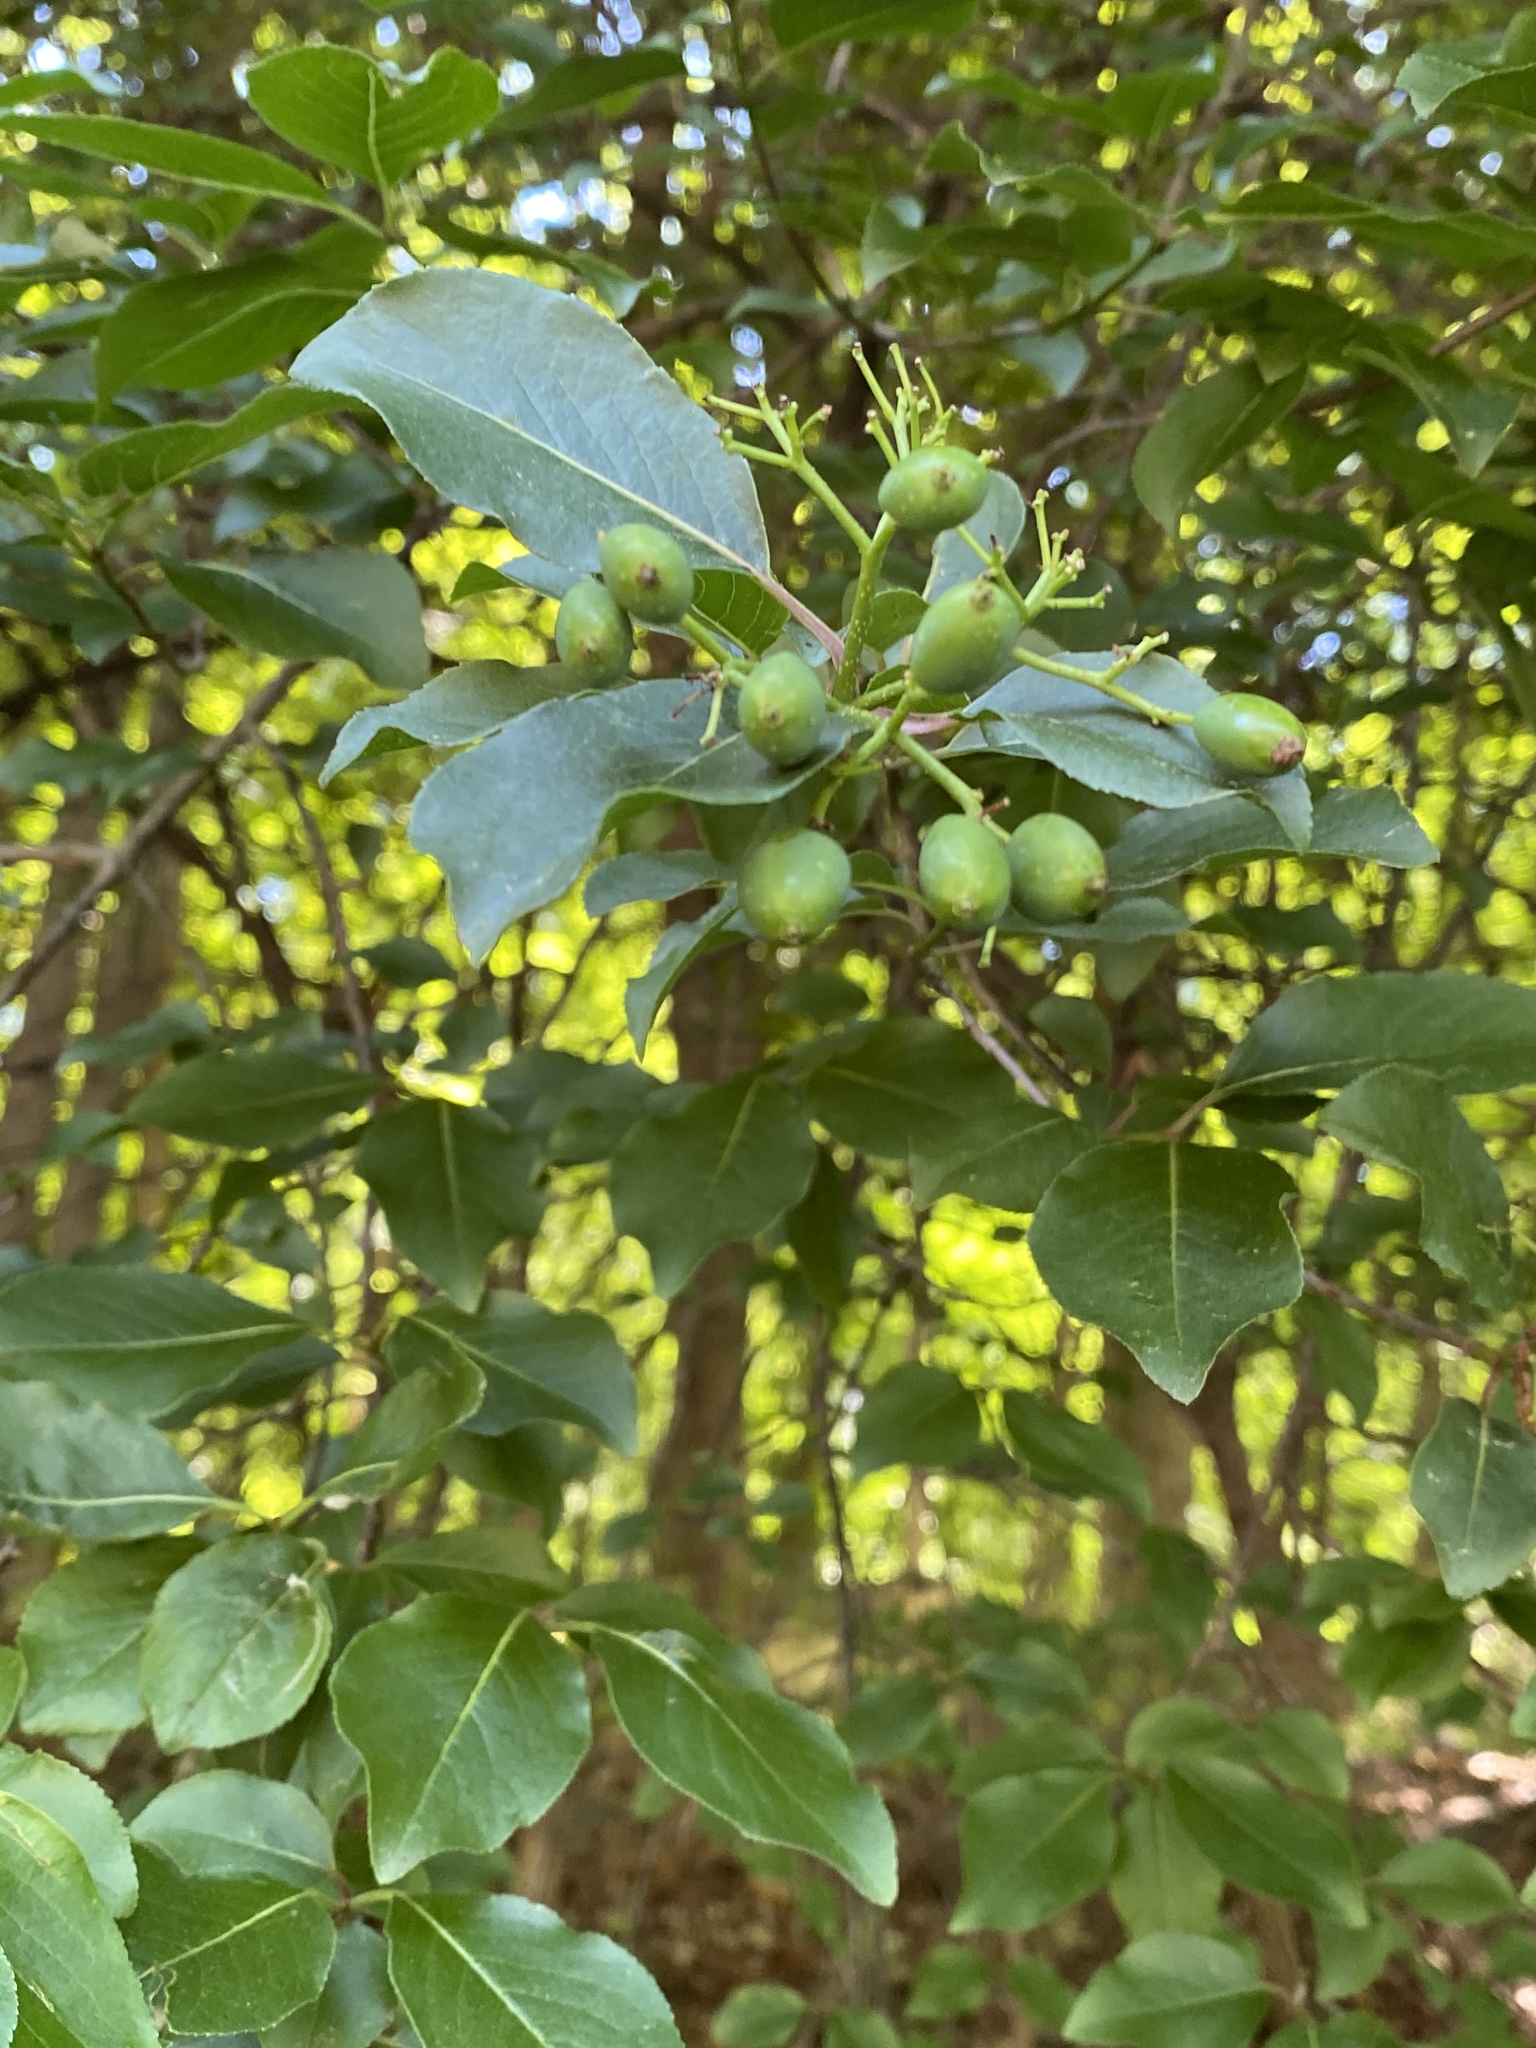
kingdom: Plantae
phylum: Tracheophyta
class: Magnoliopsida
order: Dipsacales
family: Viburnaceae
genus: Viburnum
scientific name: Viburnum prunifolium
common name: Black haw
